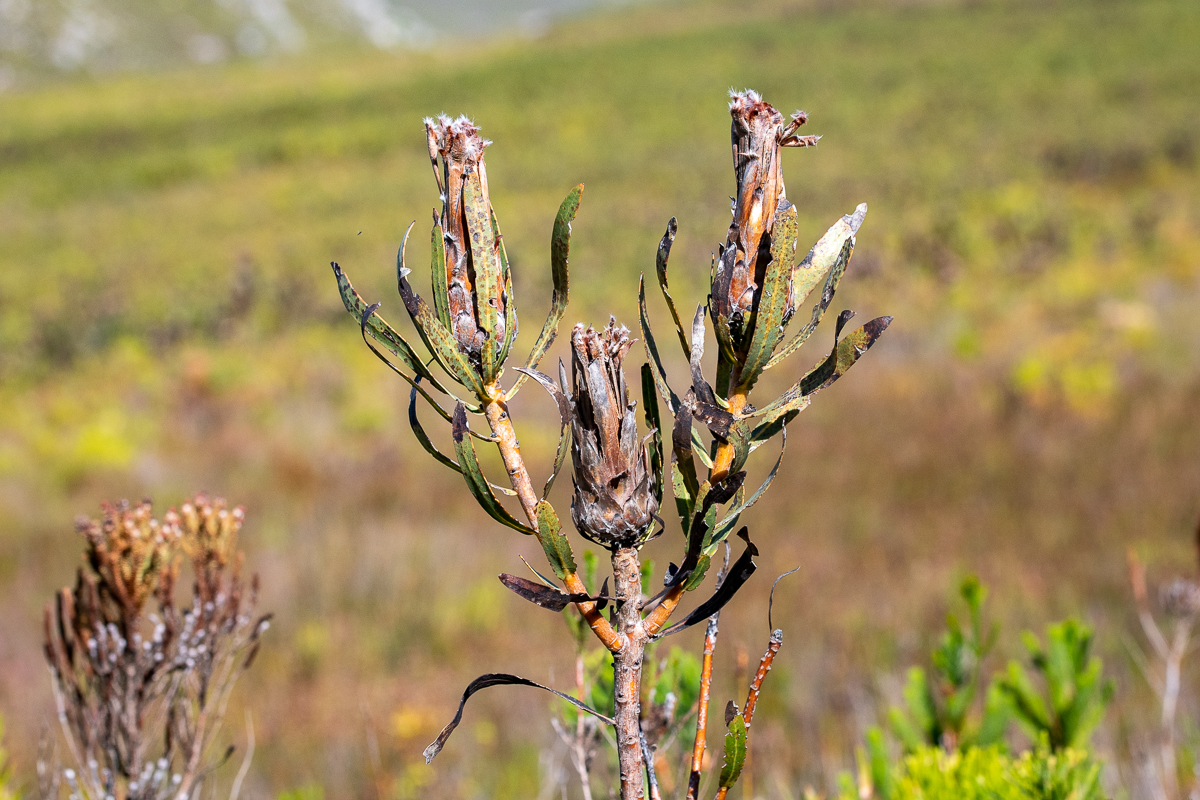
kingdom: Plantae
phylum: Tracheophyta
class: Magnoliopsida
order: Proteales
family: Proteaceae
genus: Protea
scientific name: Protea lepidocarpodendron
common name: Black-bearded protea
